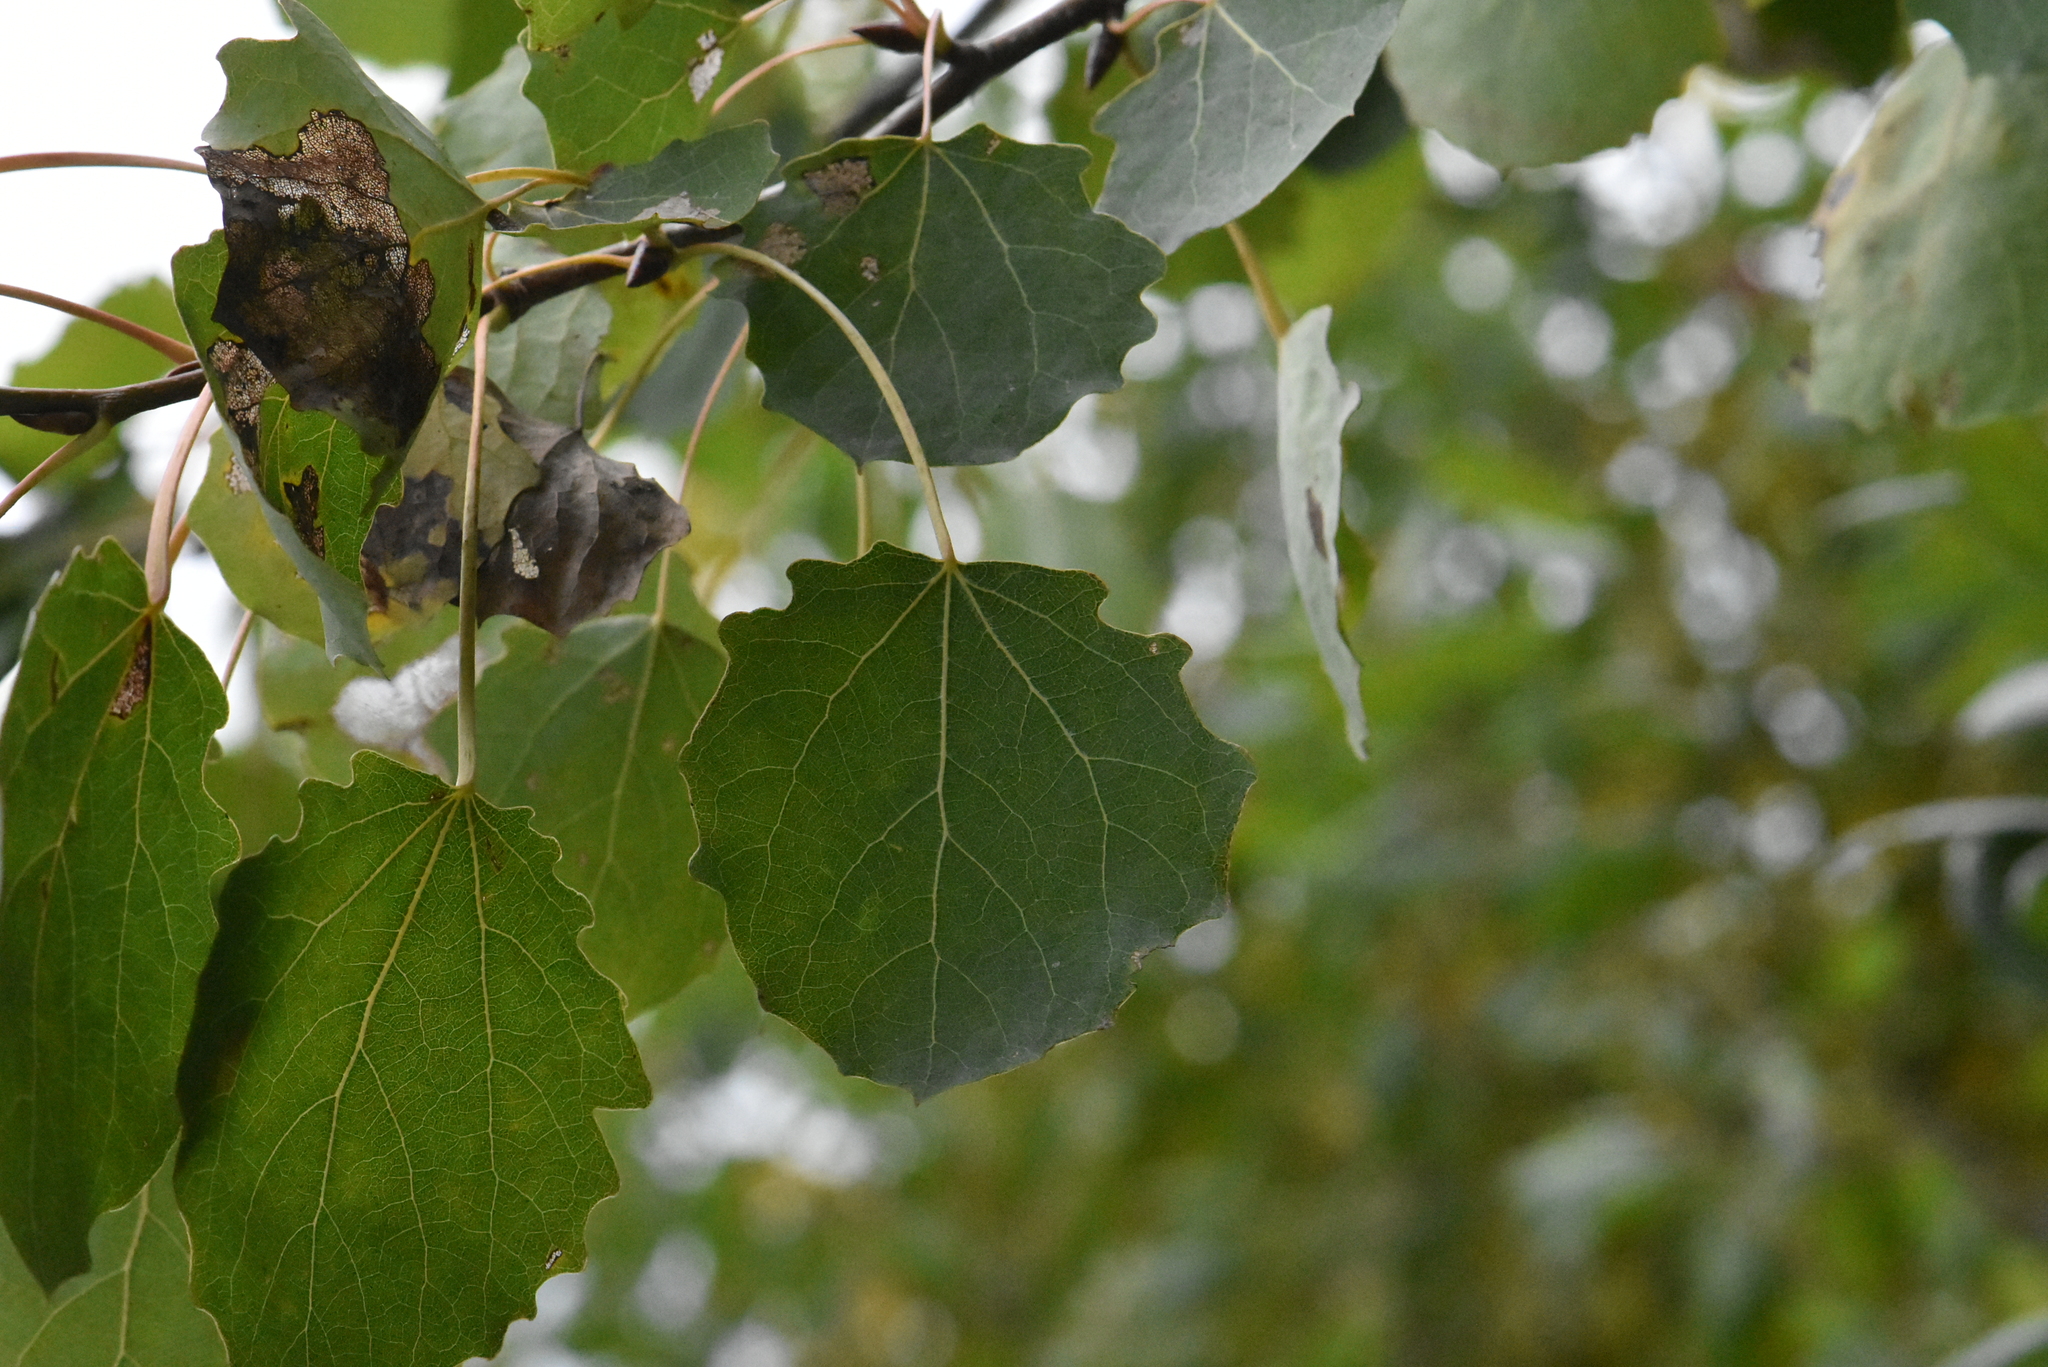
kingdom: Plantae
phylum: Tracheophyta
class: Magnoliopsida
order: Malpighiales
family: Salicaceae
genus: Populus
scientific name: Populus tremula
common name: European aspen
